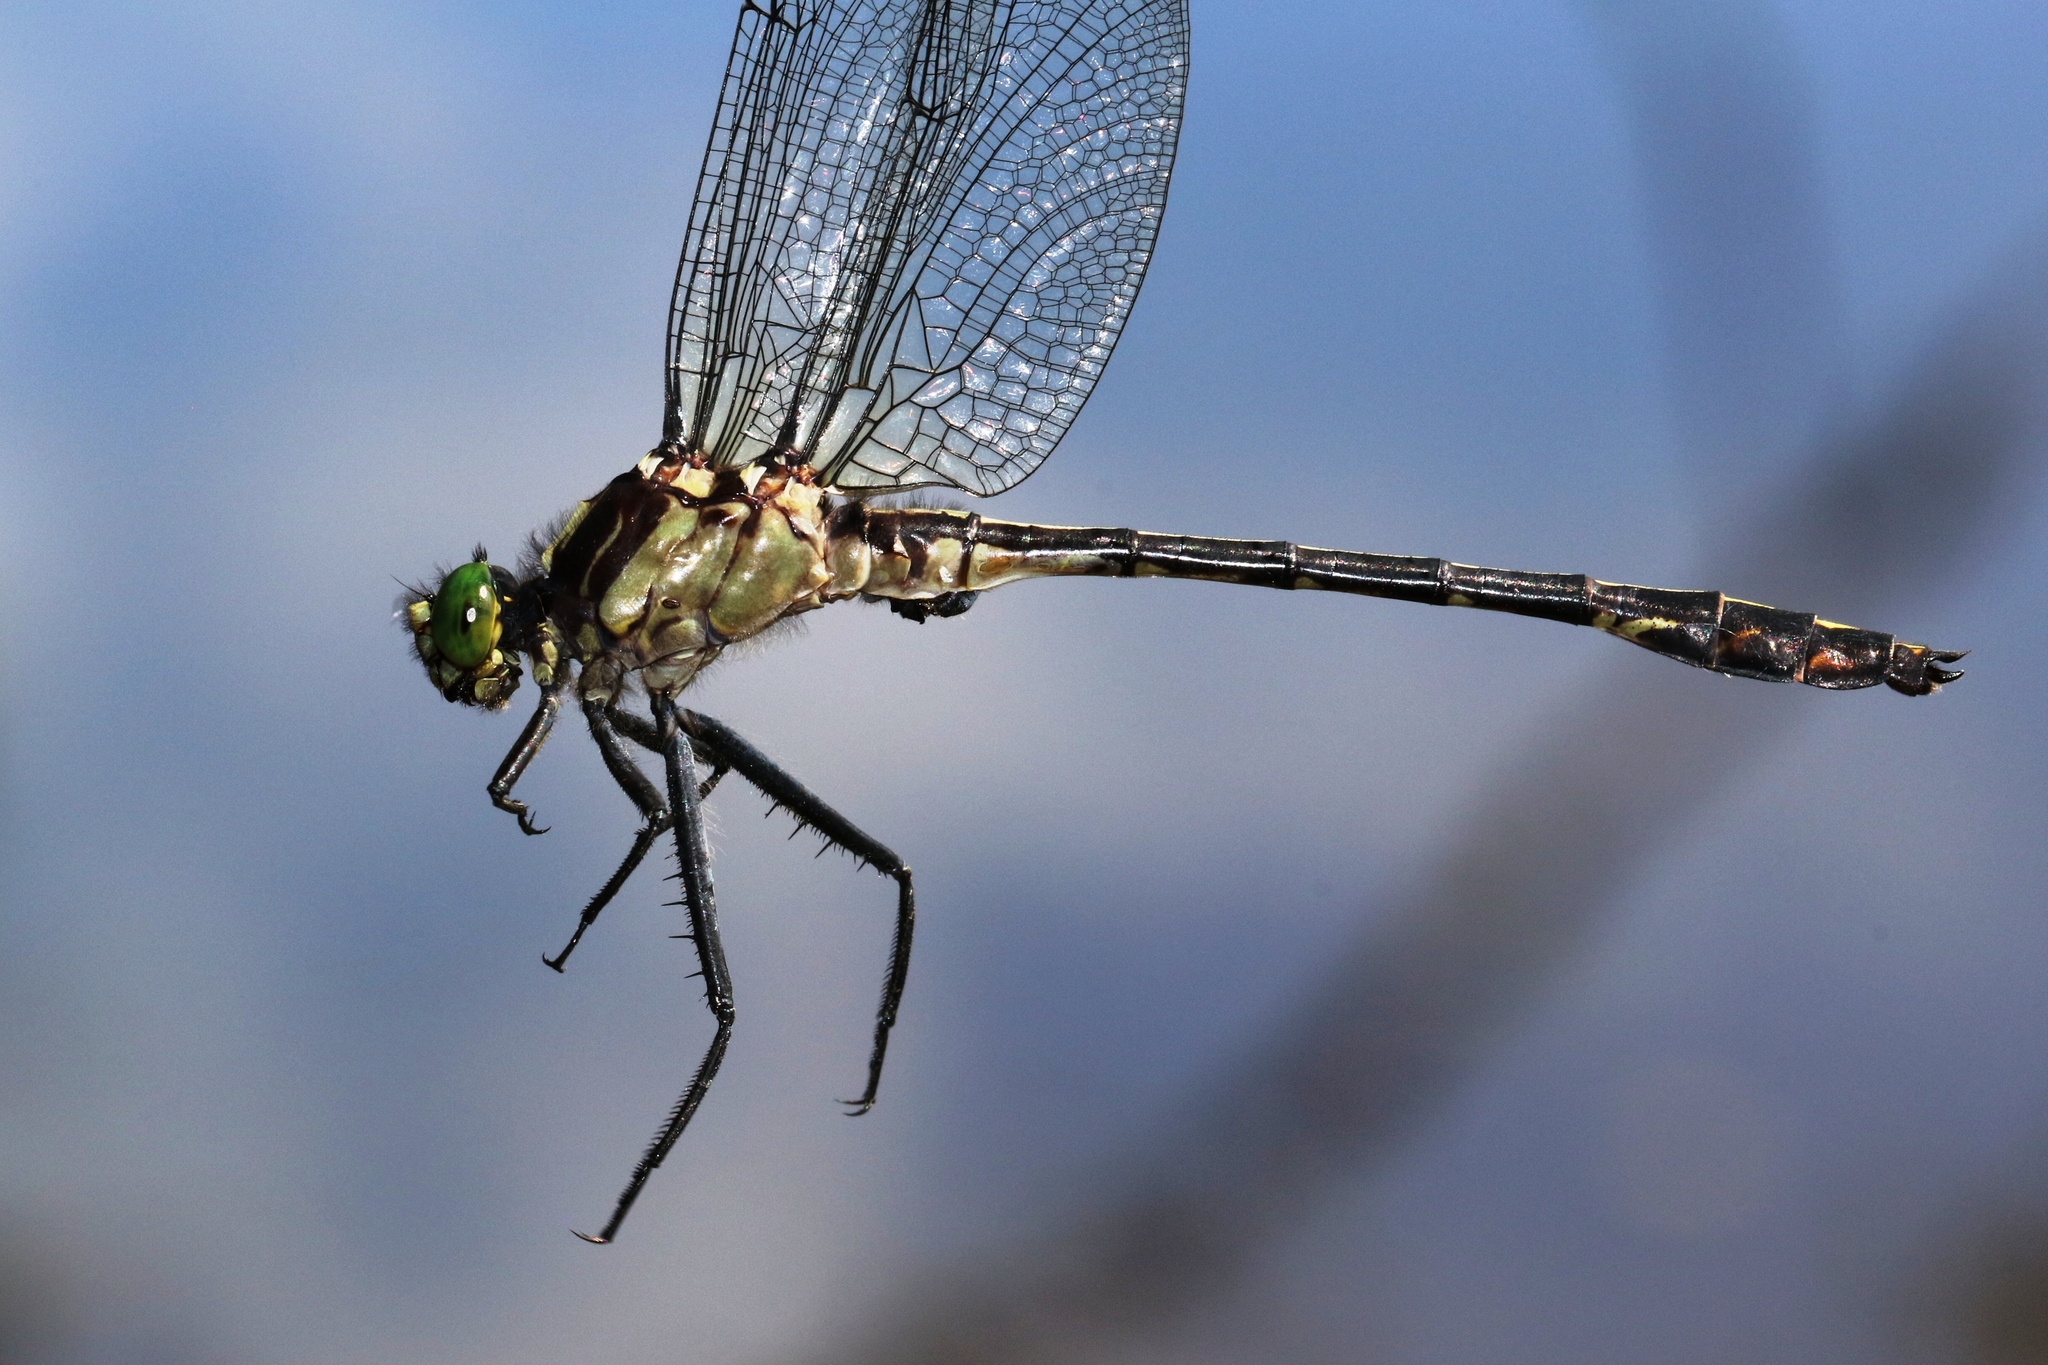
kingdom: Animalia
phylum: Arthropoda
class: Insecta
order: Odonata
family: Gomphidae
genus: Dromogomphus
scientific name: Dromogomphus spinosus
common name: Black-shouldered spinyleg
